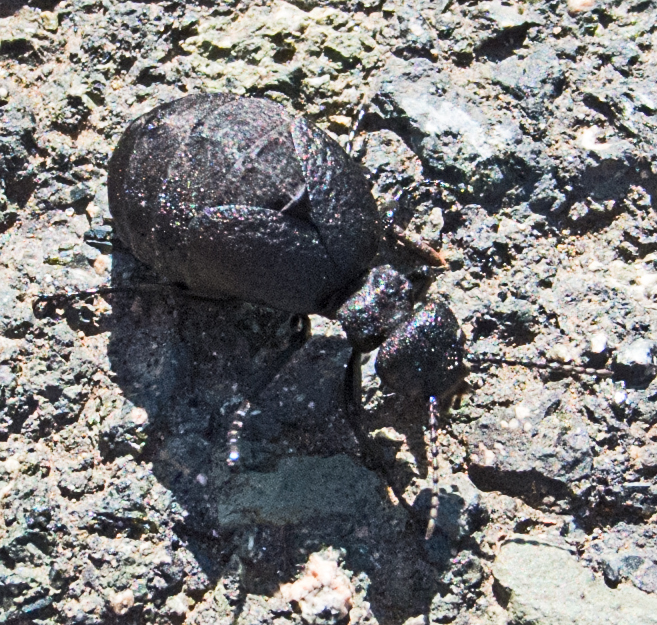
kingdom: Animalia
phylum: Arthropoda
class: Insecta
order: Coleoptera
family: Meloidae
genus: Meloe
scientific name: Meloe rugosus
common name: Rugged oil-beetle
